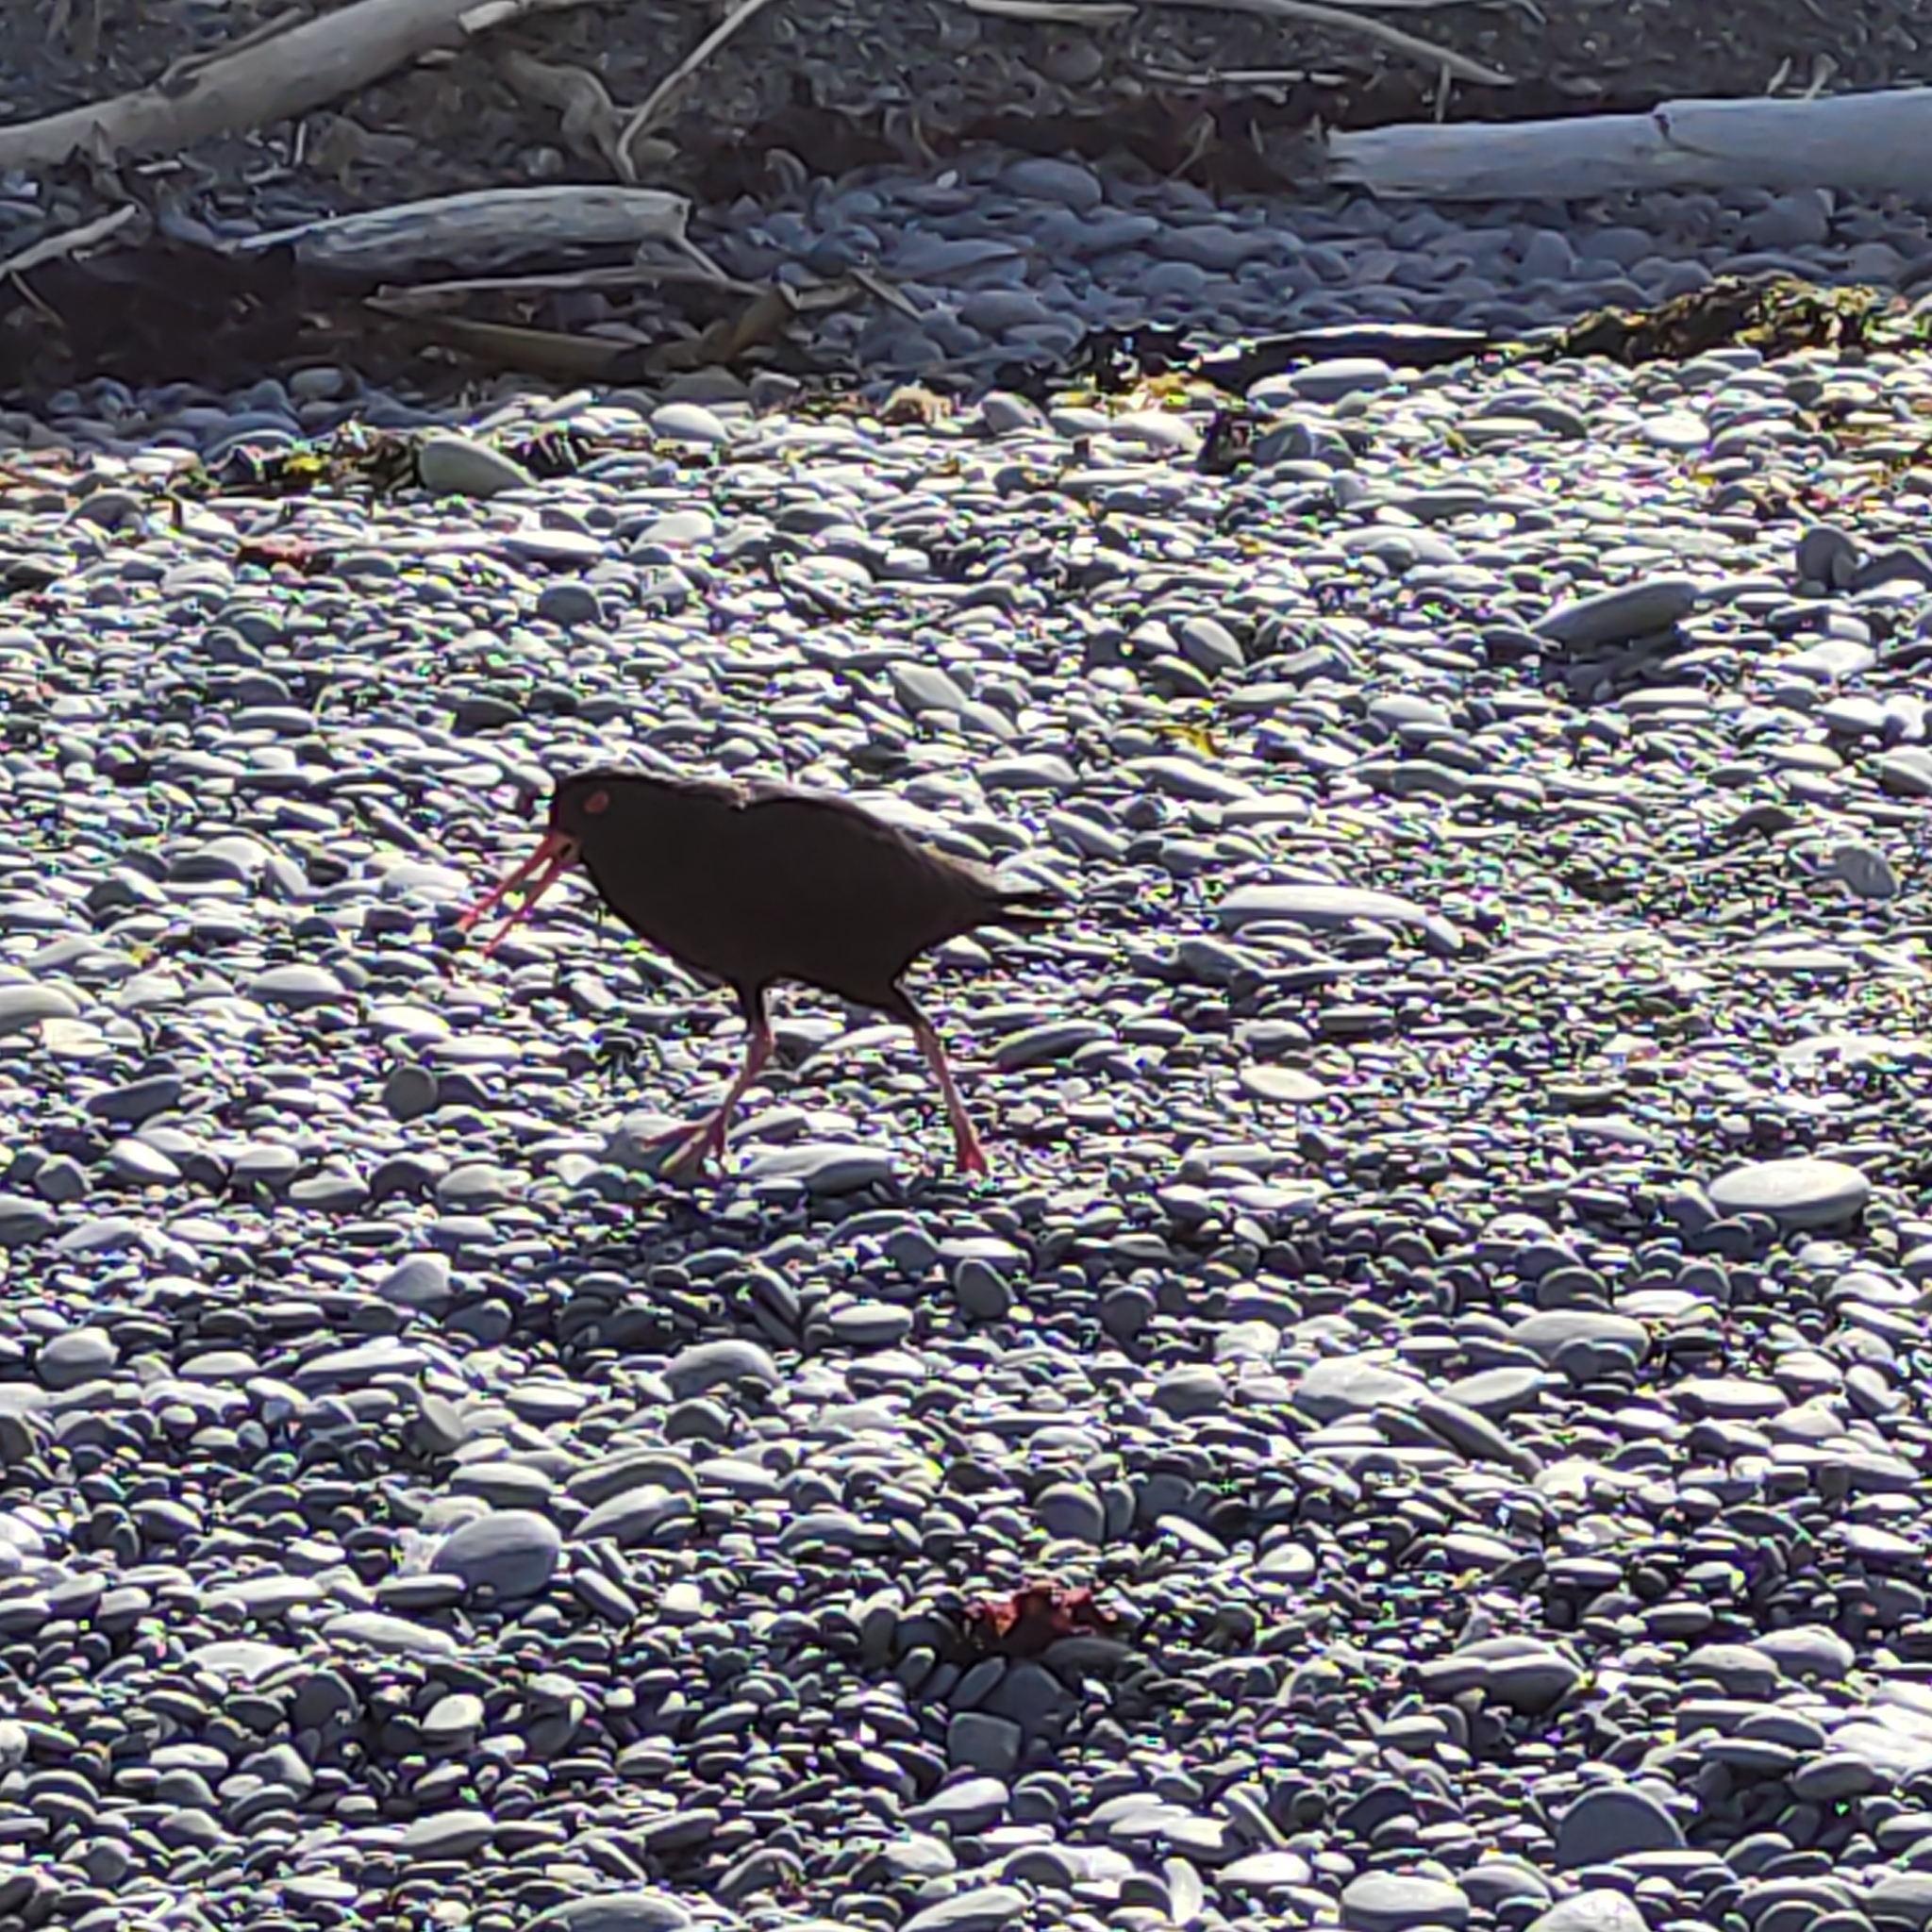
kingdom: Animalia
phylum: Chordata
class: Aves
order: Charadriiformes
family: Haematopodidae
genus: Haematopus
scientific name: Haematopus unicolor
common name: Variable oystercatcher
